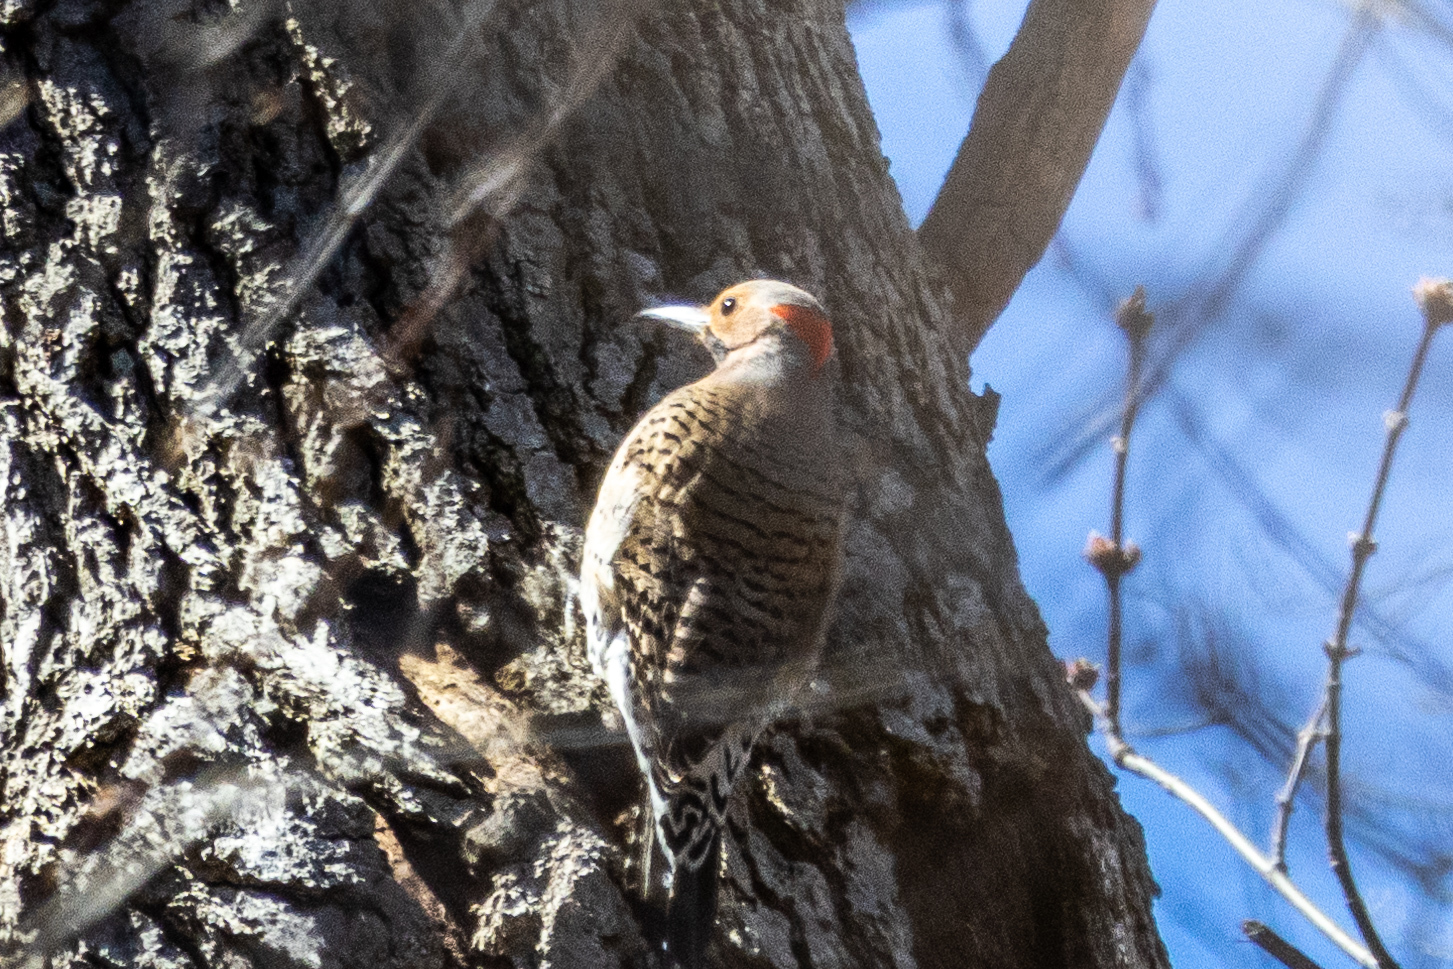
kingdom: Animalia
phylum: Chordata
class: Aves
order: Piciformes
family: Picidae
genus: Colaptes
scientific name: Colaptes auratus
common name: Northern flicker
